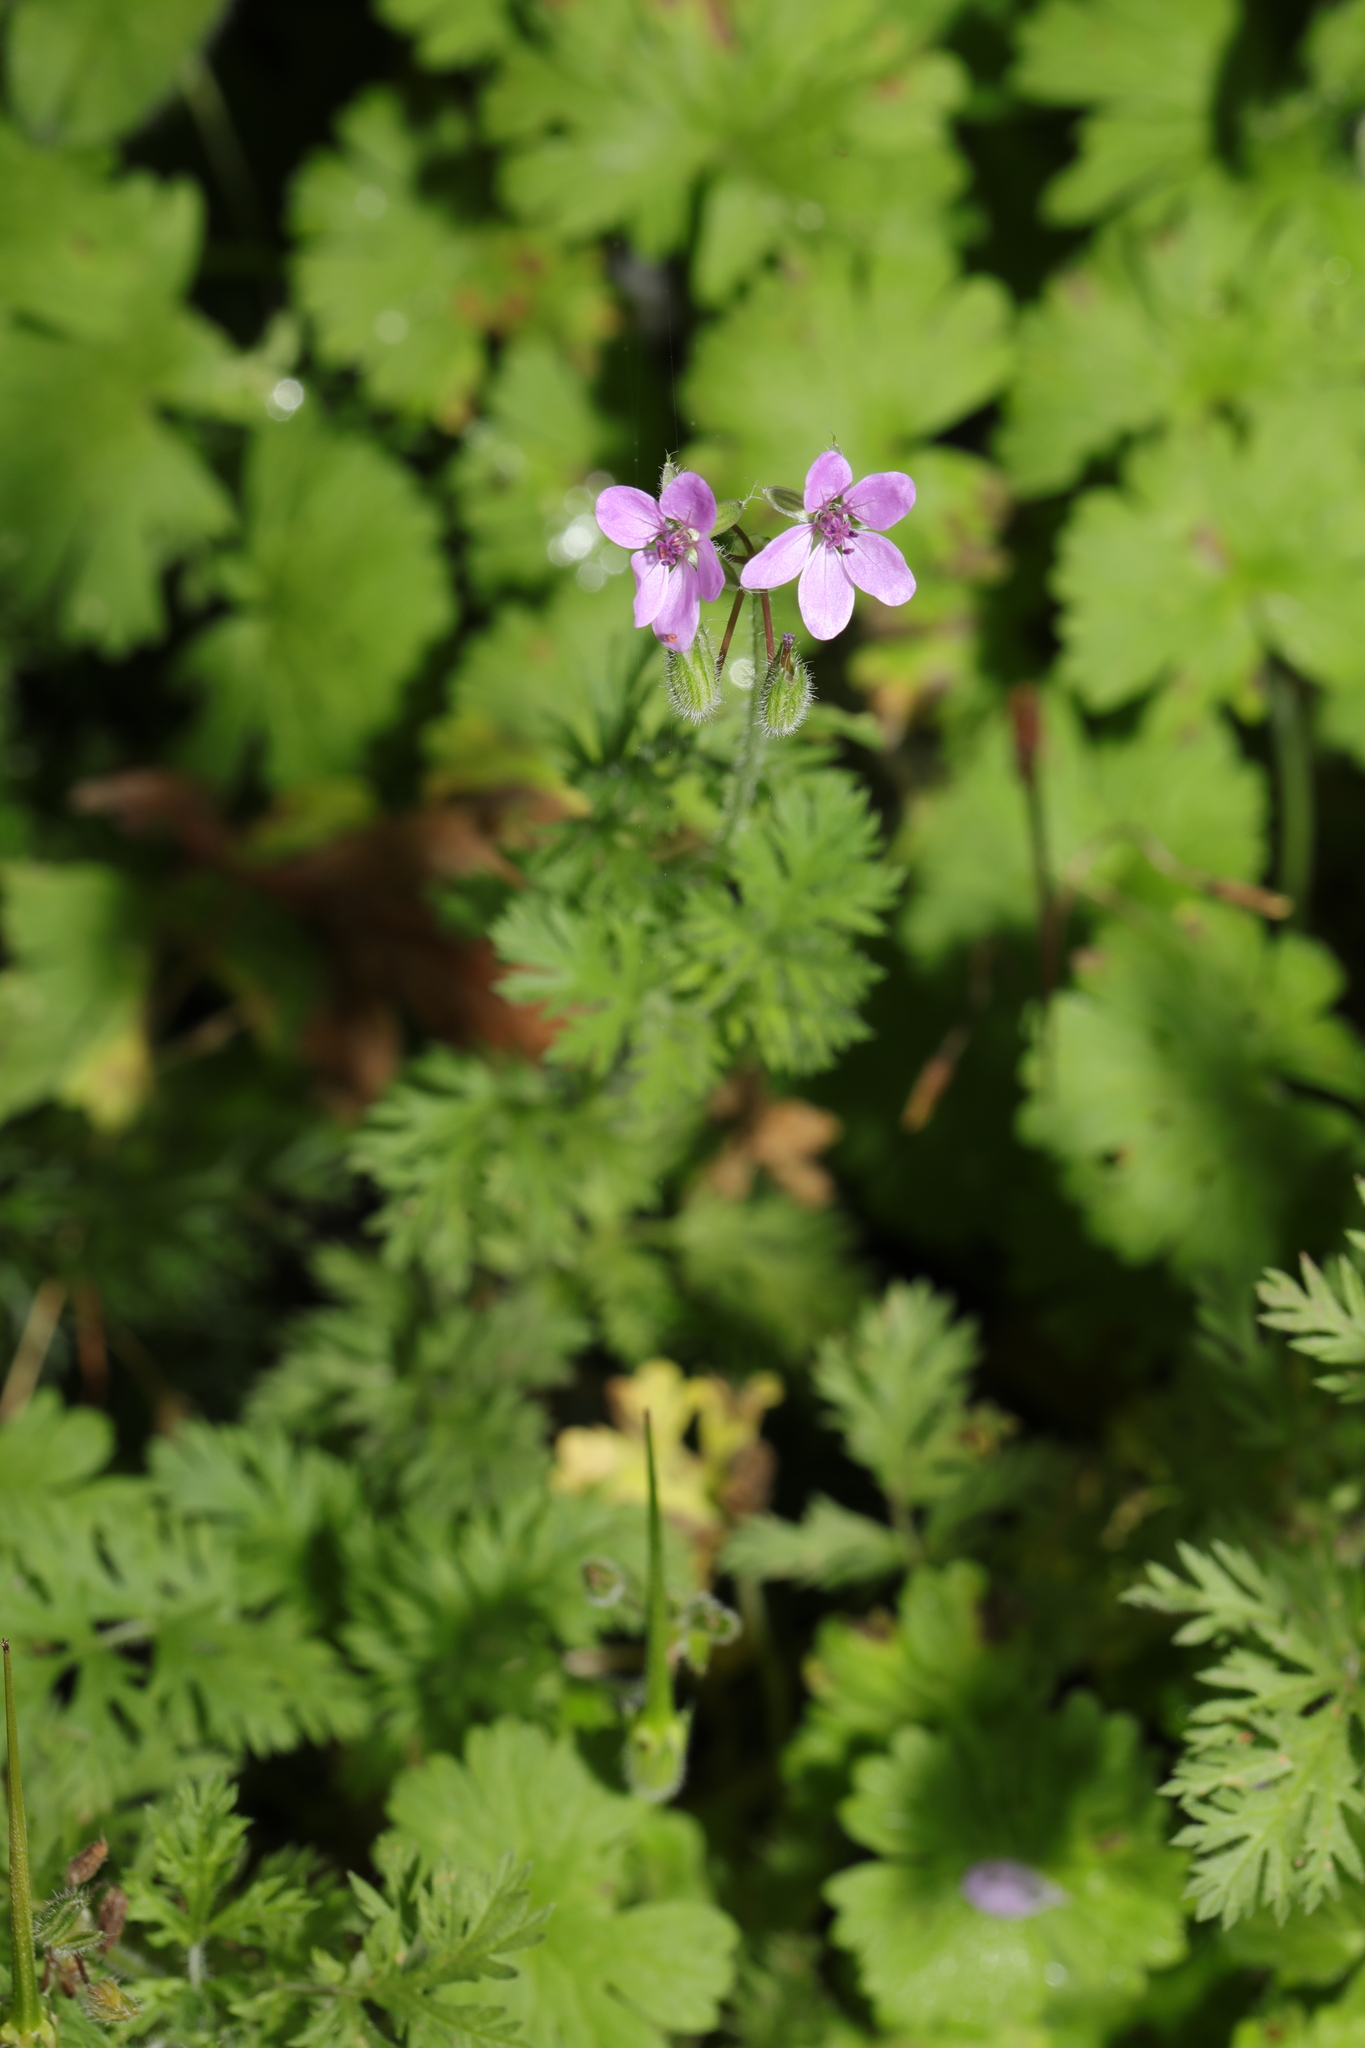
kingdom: Plantae
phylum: Tracheophyta
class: Magnoliopsida
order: Geraniales
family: Geraniaceae
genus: Erodium
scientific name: Erodium cicutarium
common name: Common stork's-bill
